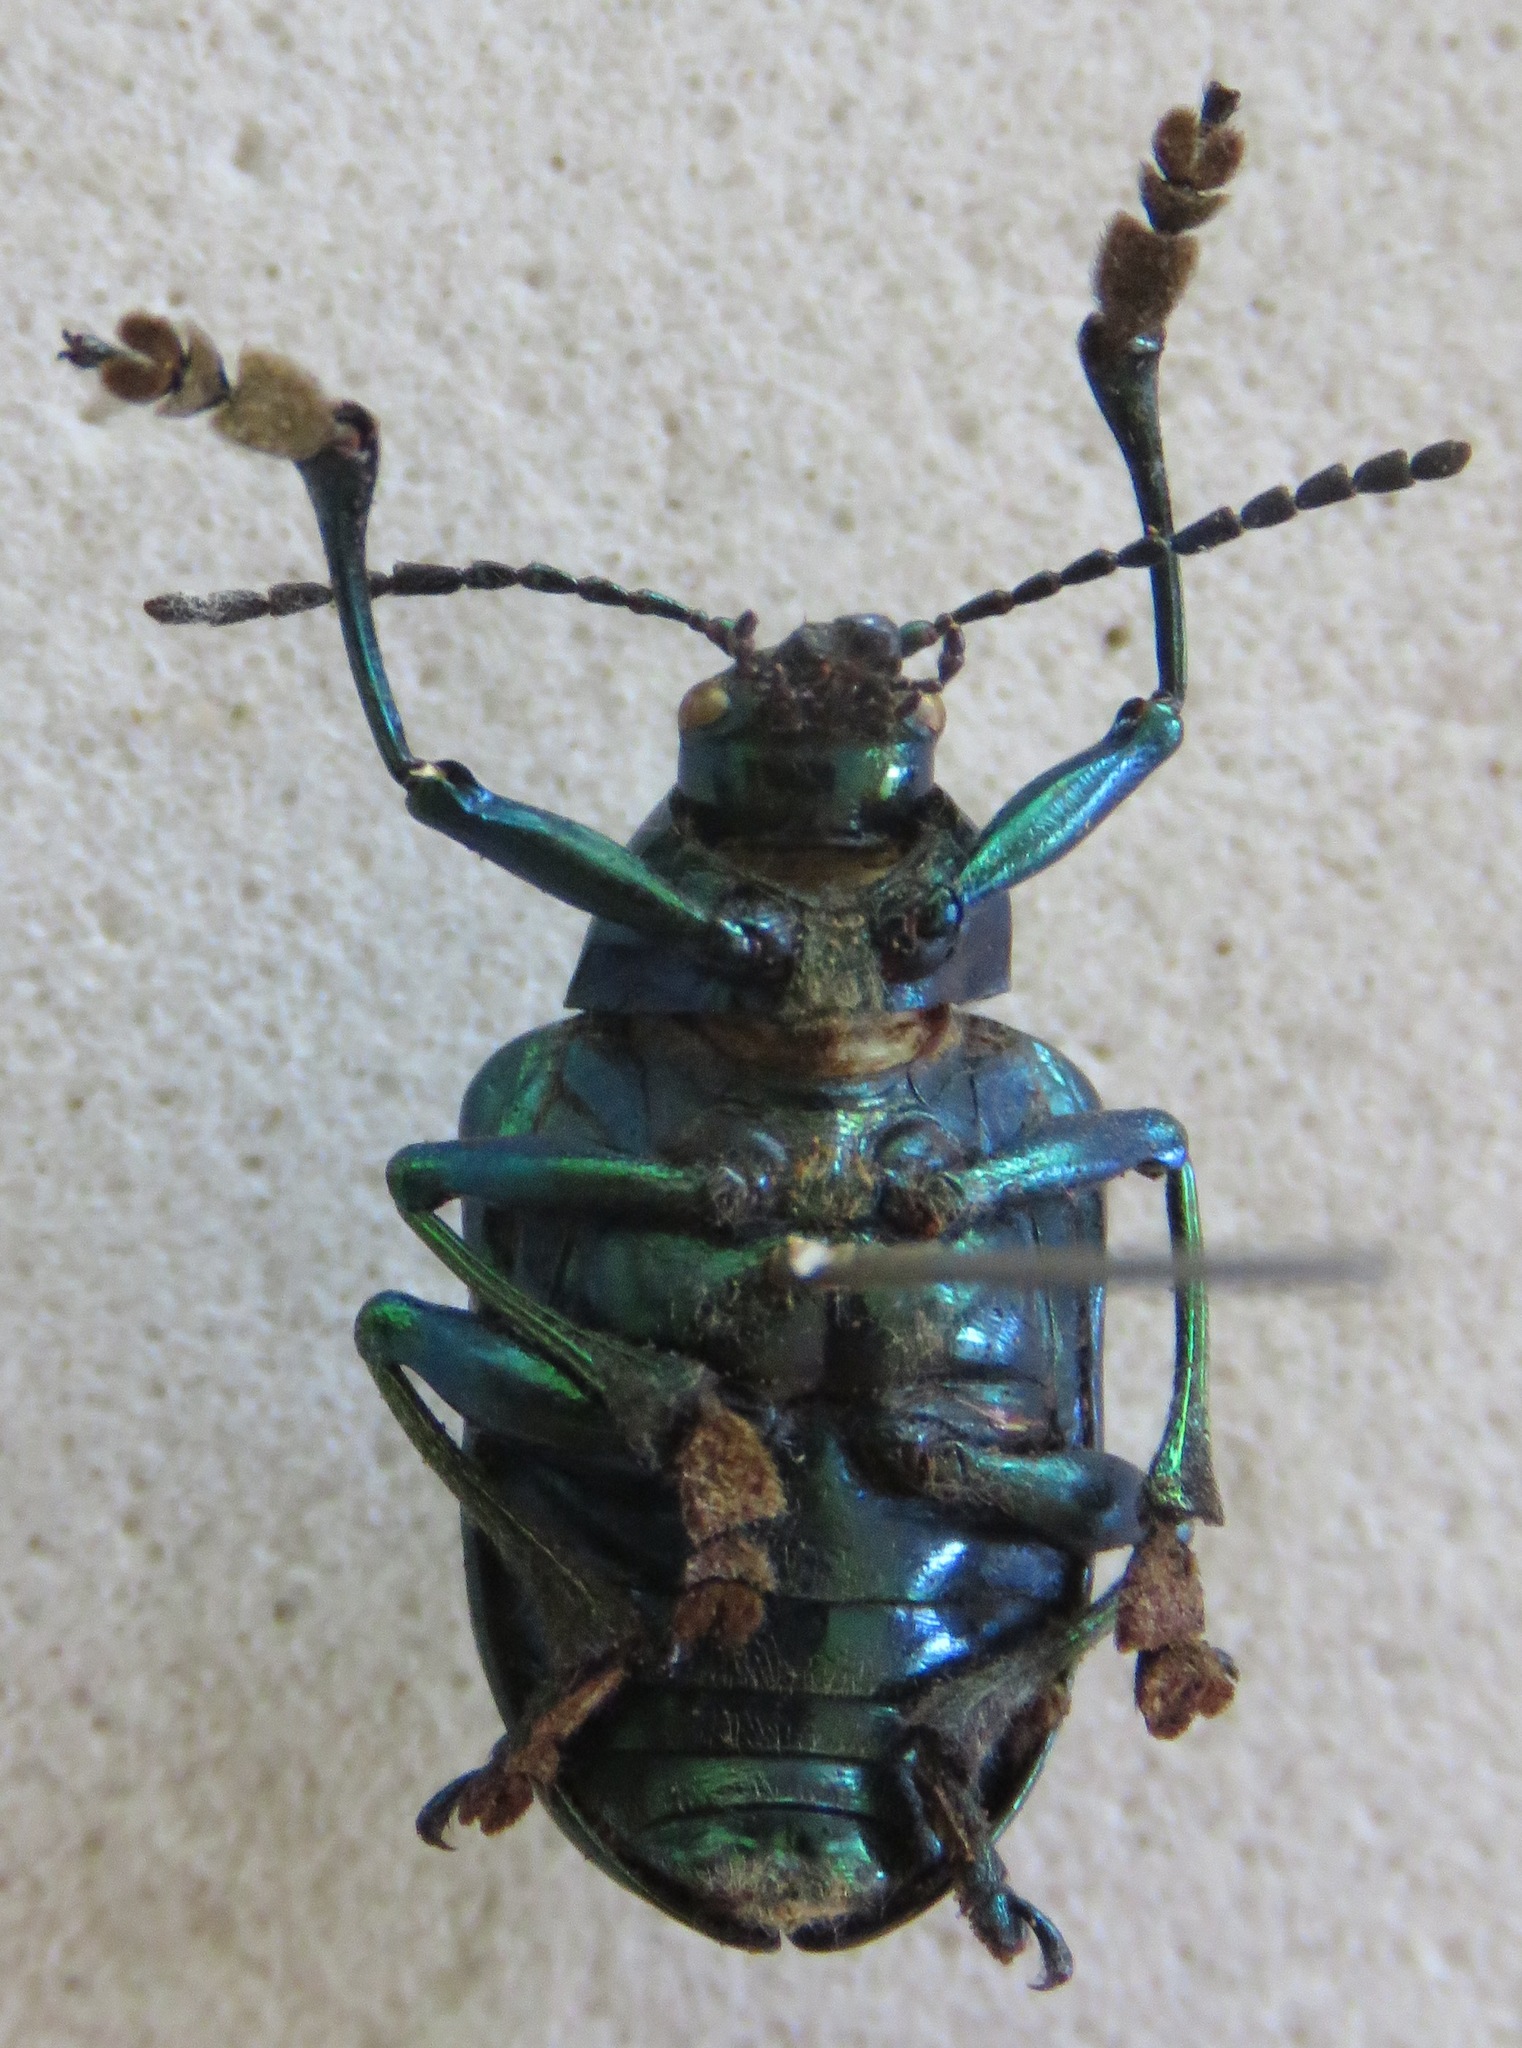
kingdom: Animalia
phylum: Arthropoda
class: Insecta
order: Coleoptera
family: Chrysomelidae
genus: Eumolpus
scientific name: Eumolpus robustus
